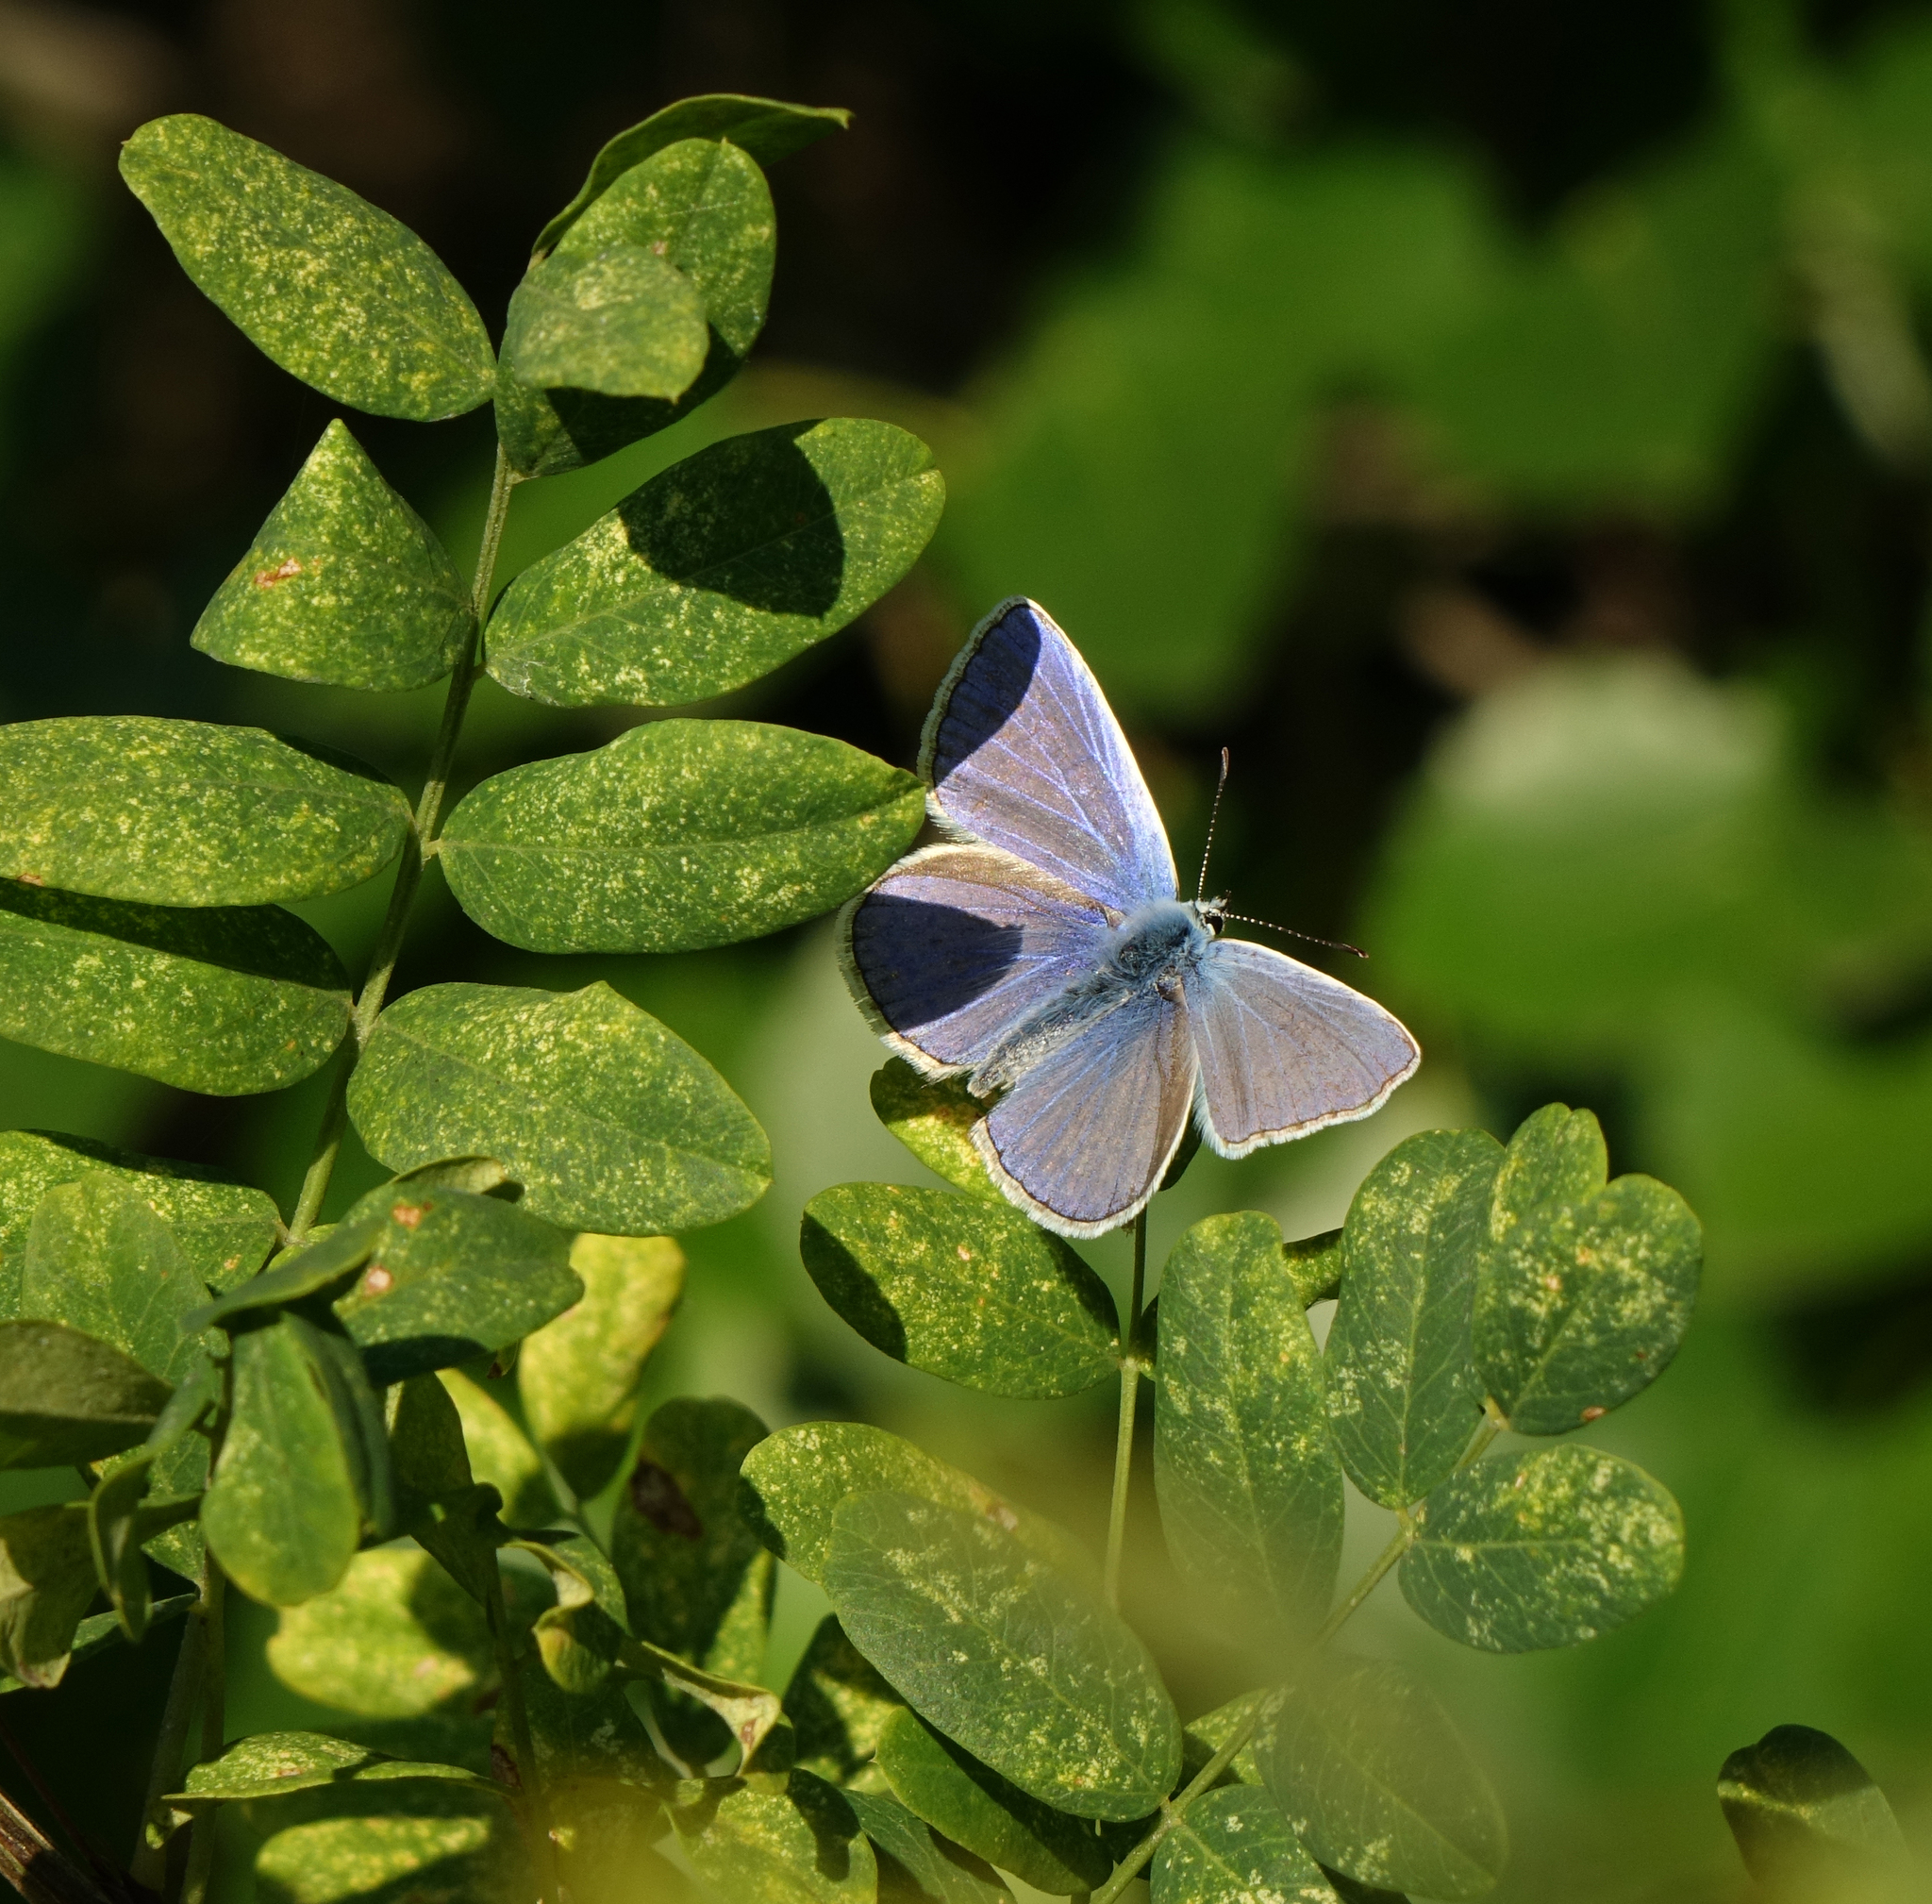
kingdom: Animalia
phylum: Arthropoda
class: Insecta
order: Lepidoptera
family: Lycaenidae
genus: Polyommatus
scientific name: Polyommatus icarus
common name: Common blue
